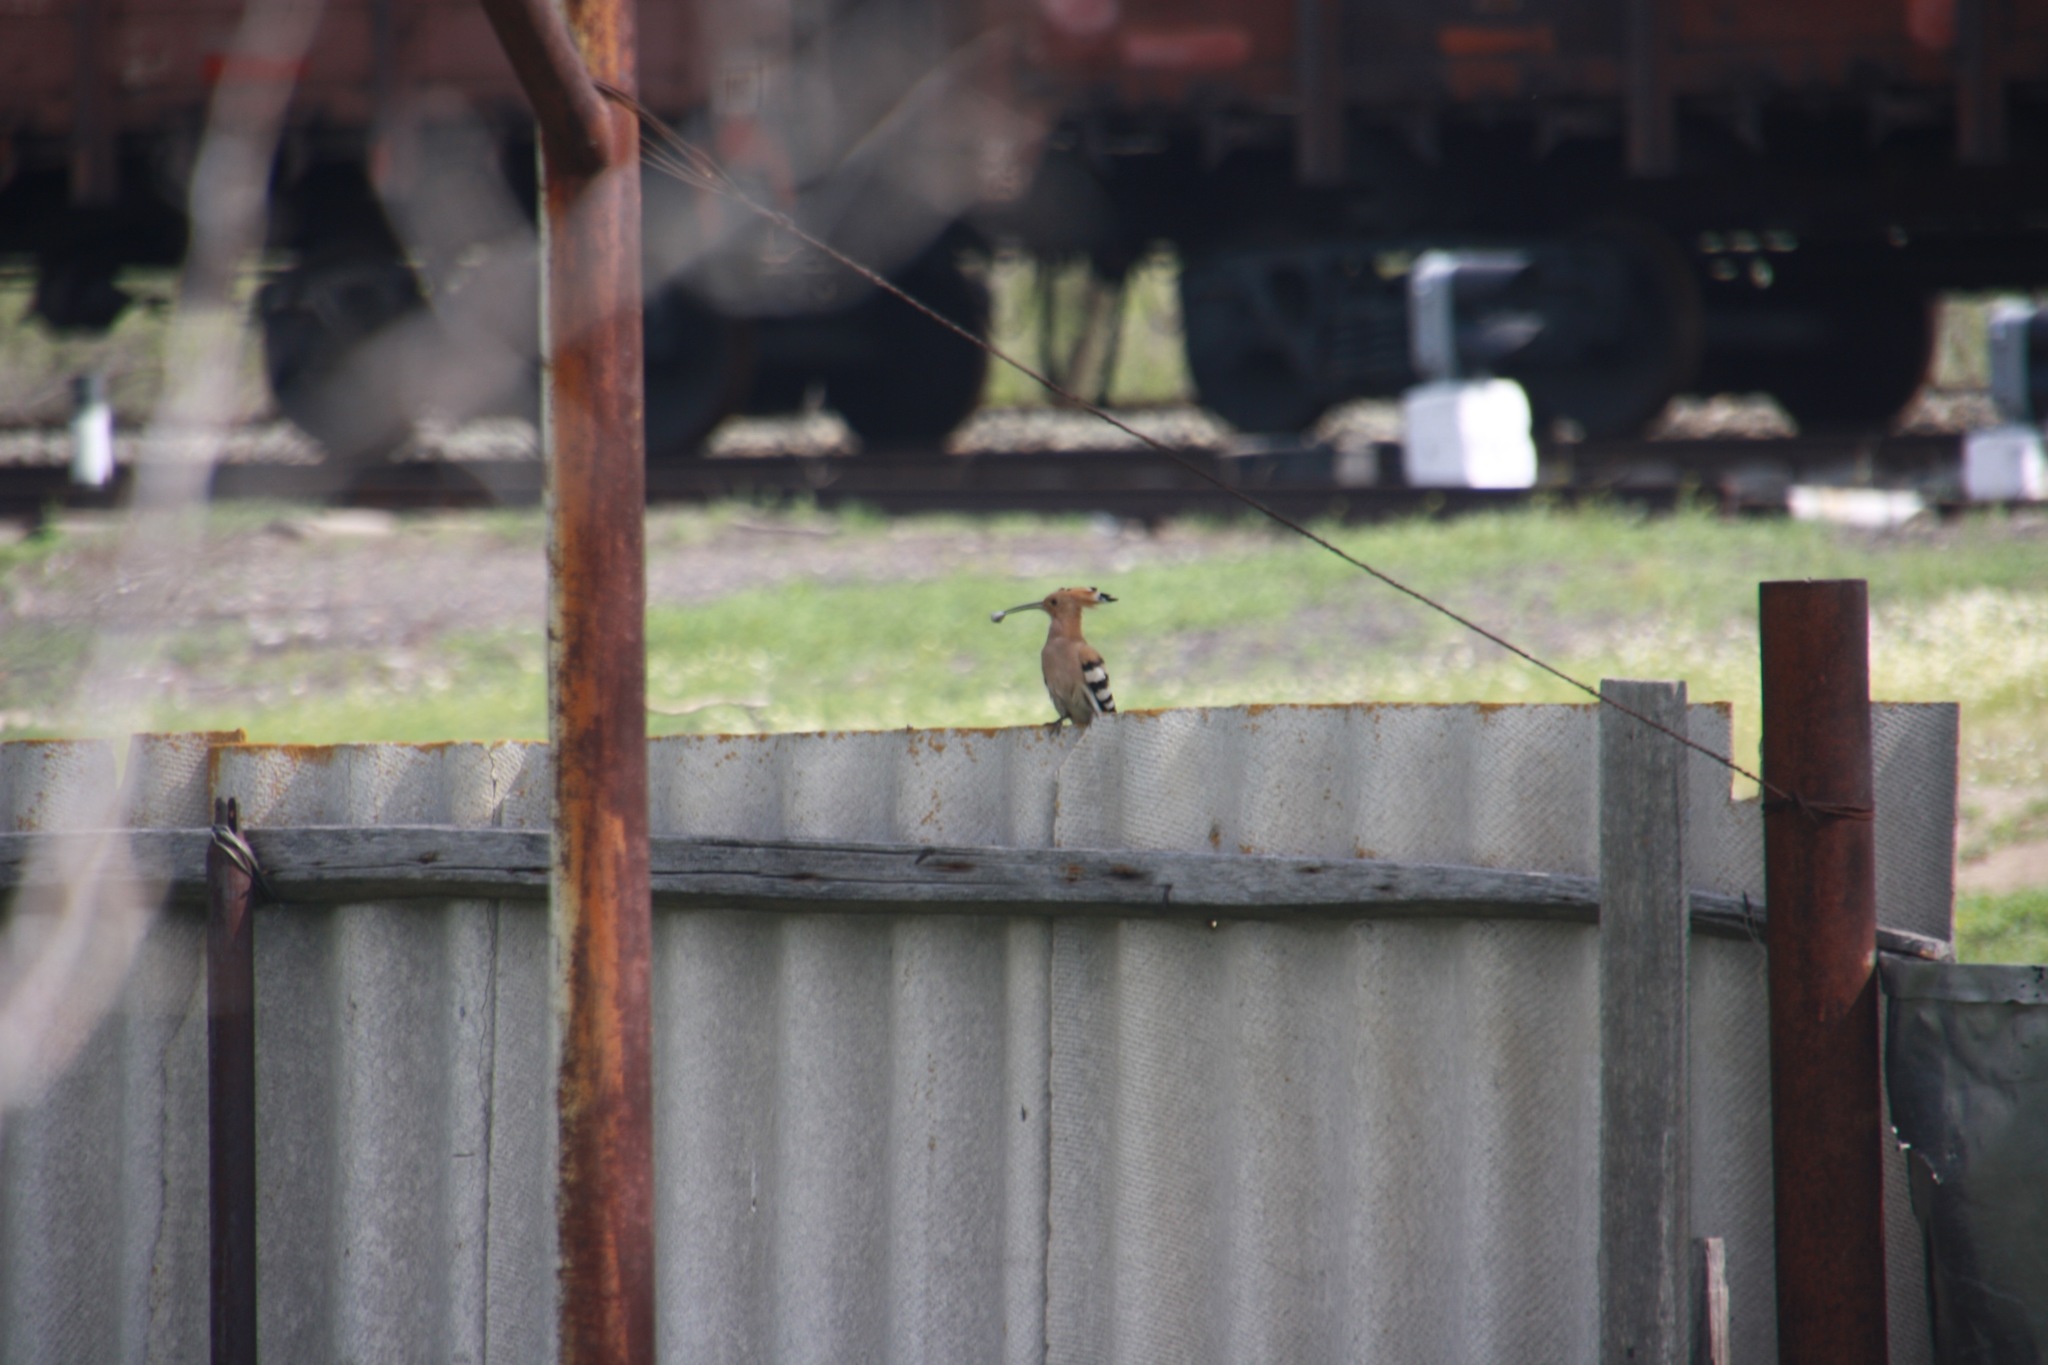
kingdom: Animalia
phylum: Chordata
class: Aves
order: Bucerotiformes
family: Upupidae
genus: Upupa
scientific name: Upupa epops
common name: Eurasian hoopoe
